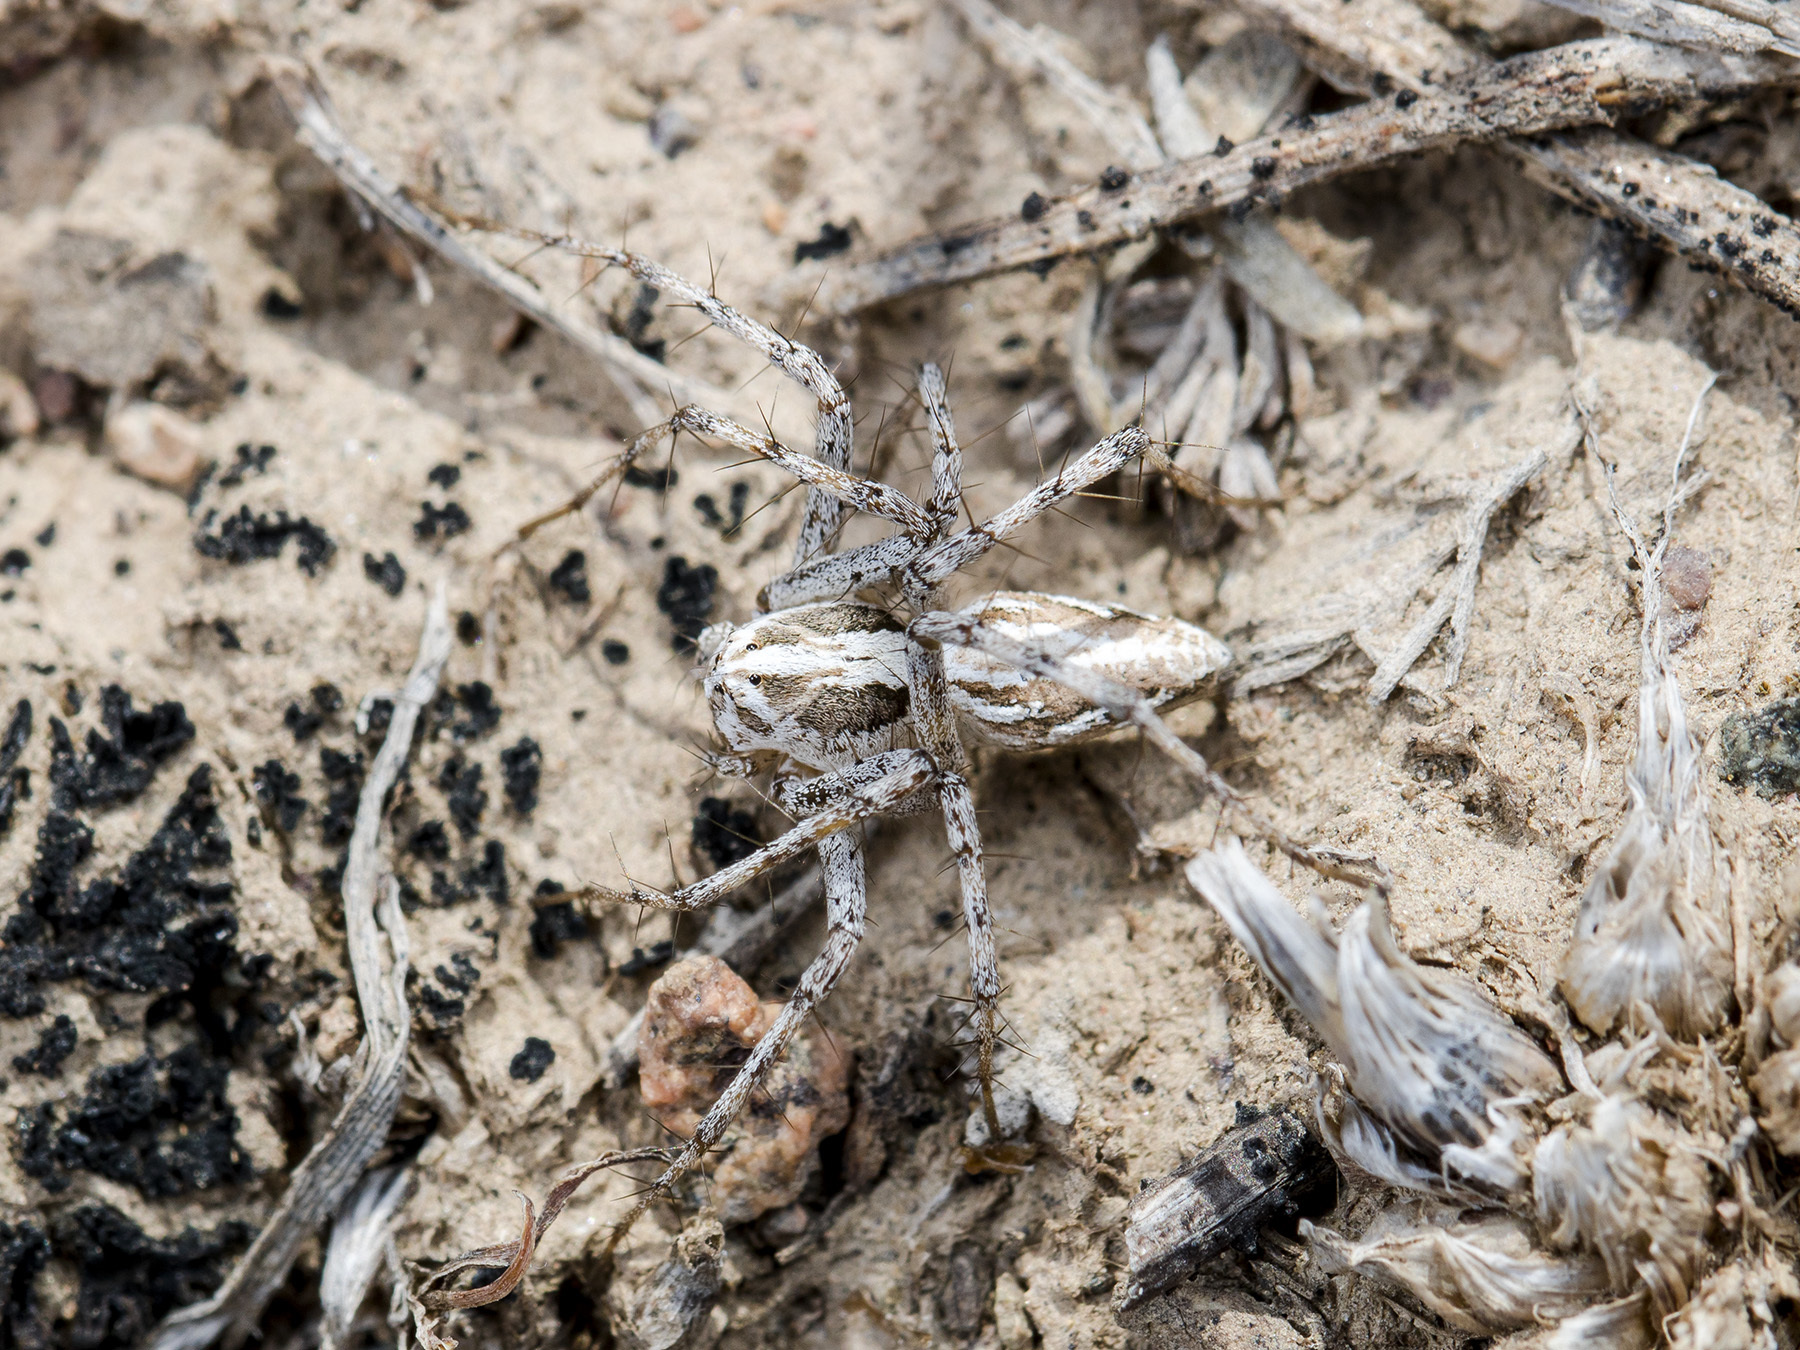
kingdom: Animalia
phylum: Arthropoda
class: Arachnida
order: Araneae
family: Oxyopidae
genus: Oxyopes
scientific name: Oxyopes globifer
